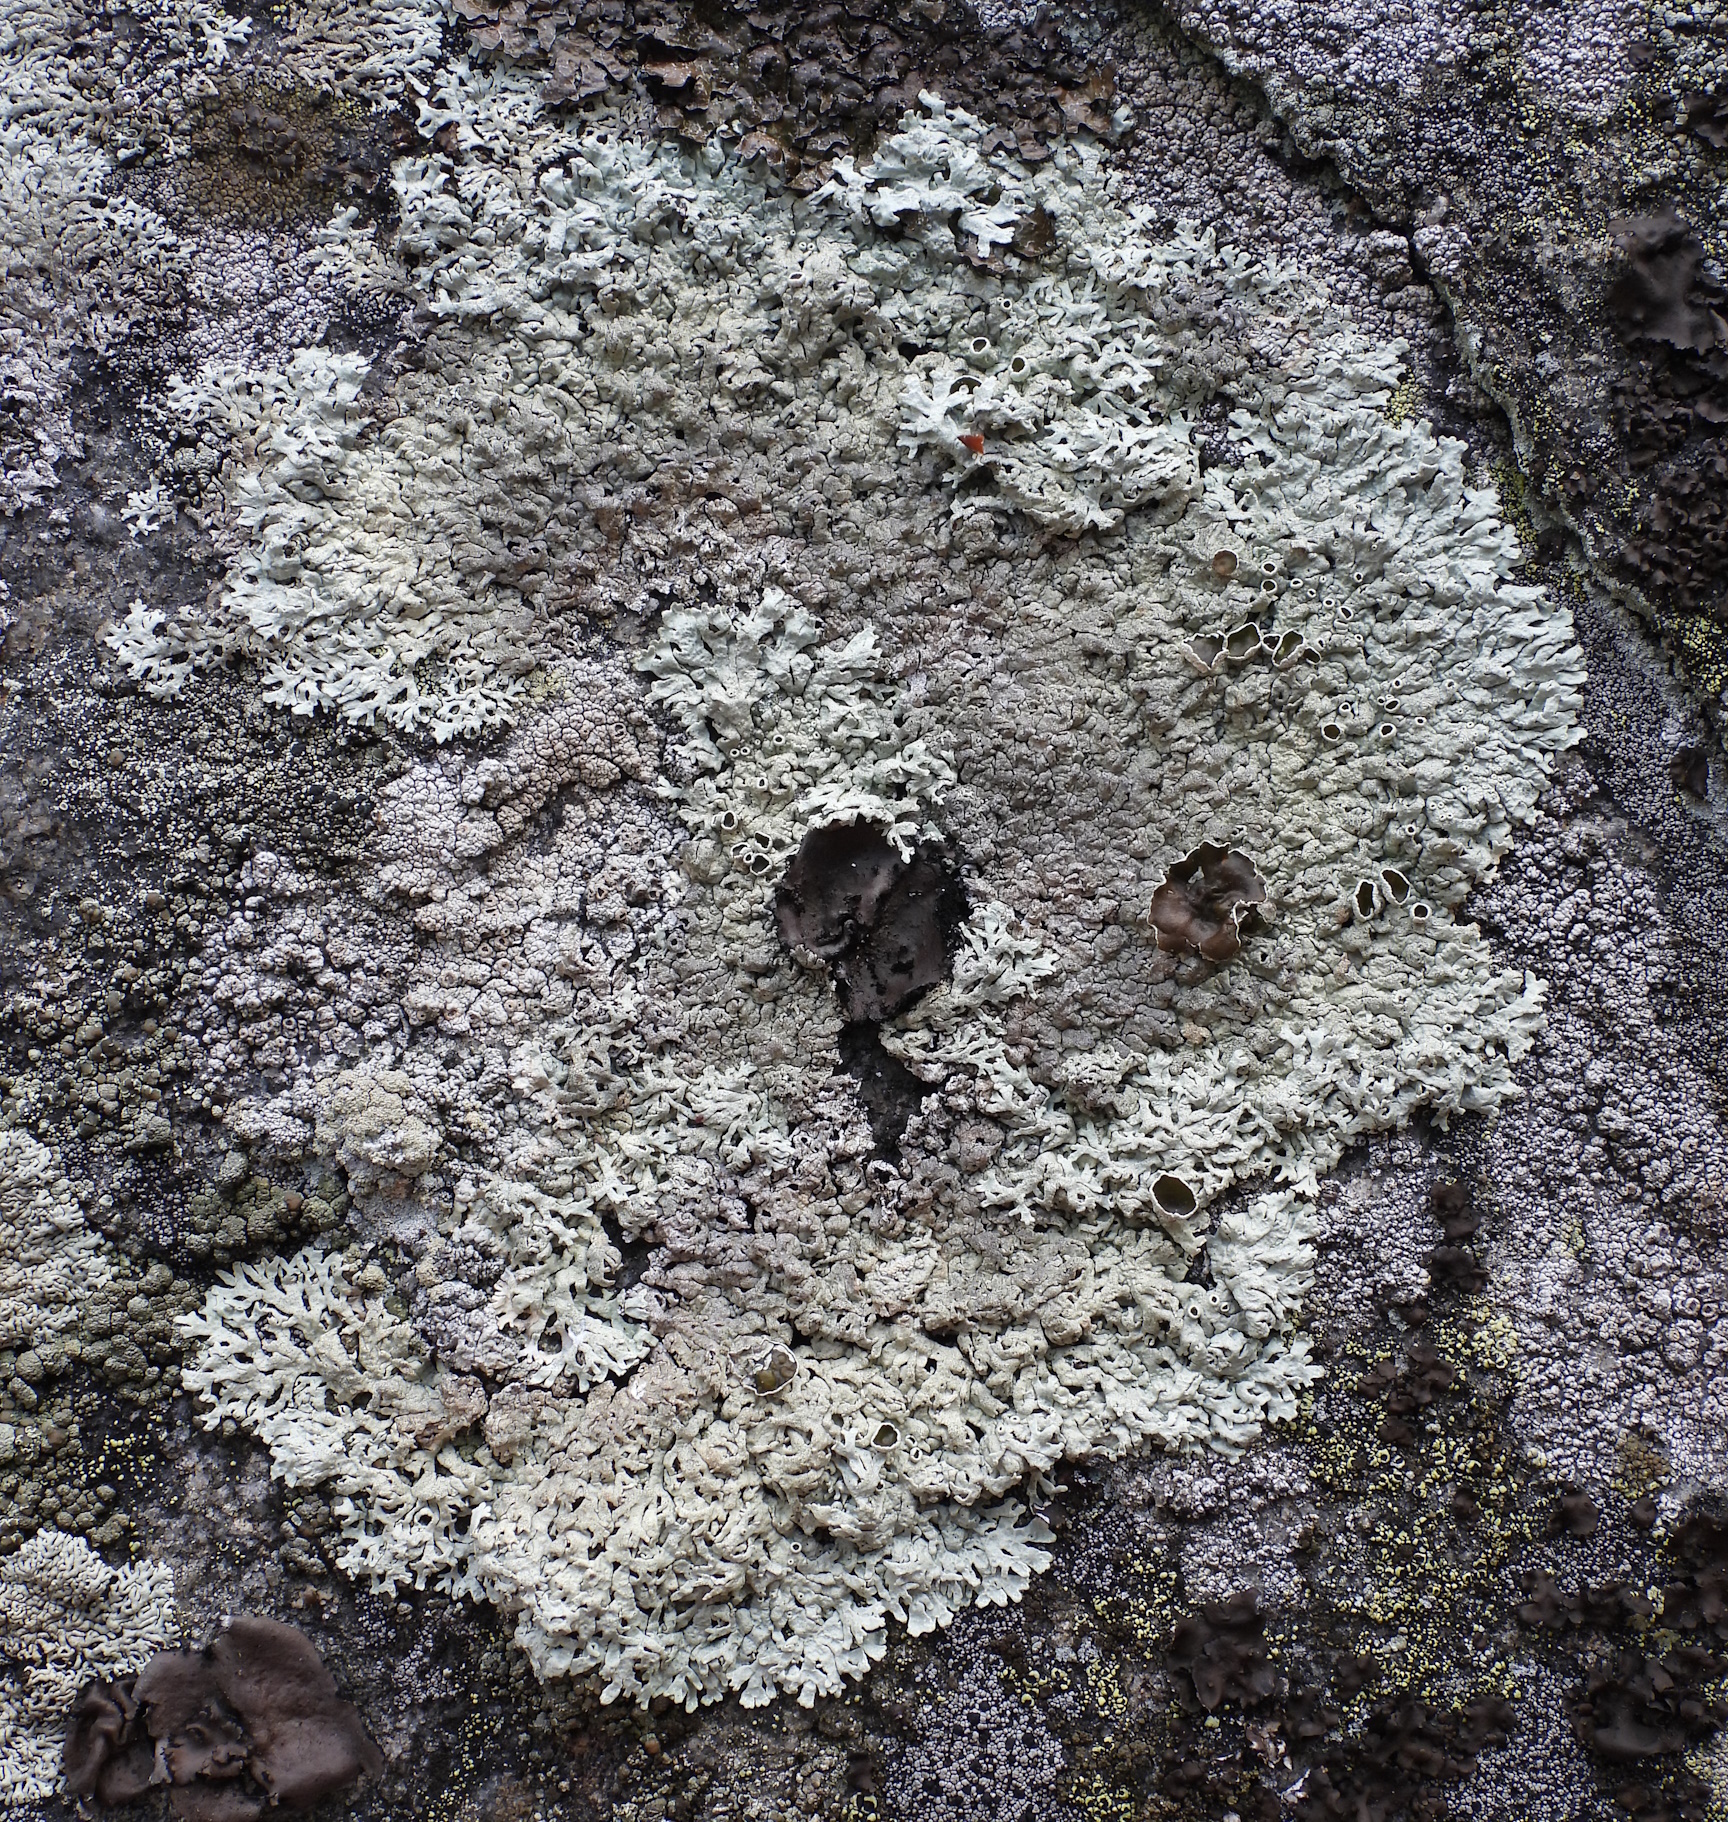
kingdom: Fungi
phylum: Ascomycota
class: Lecanoromycetes
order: Lecanorales
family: Parmeliaceae
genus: Arctoparmelia
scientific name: Arctoparmelia centrifuga
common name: Concentric ring lichen
